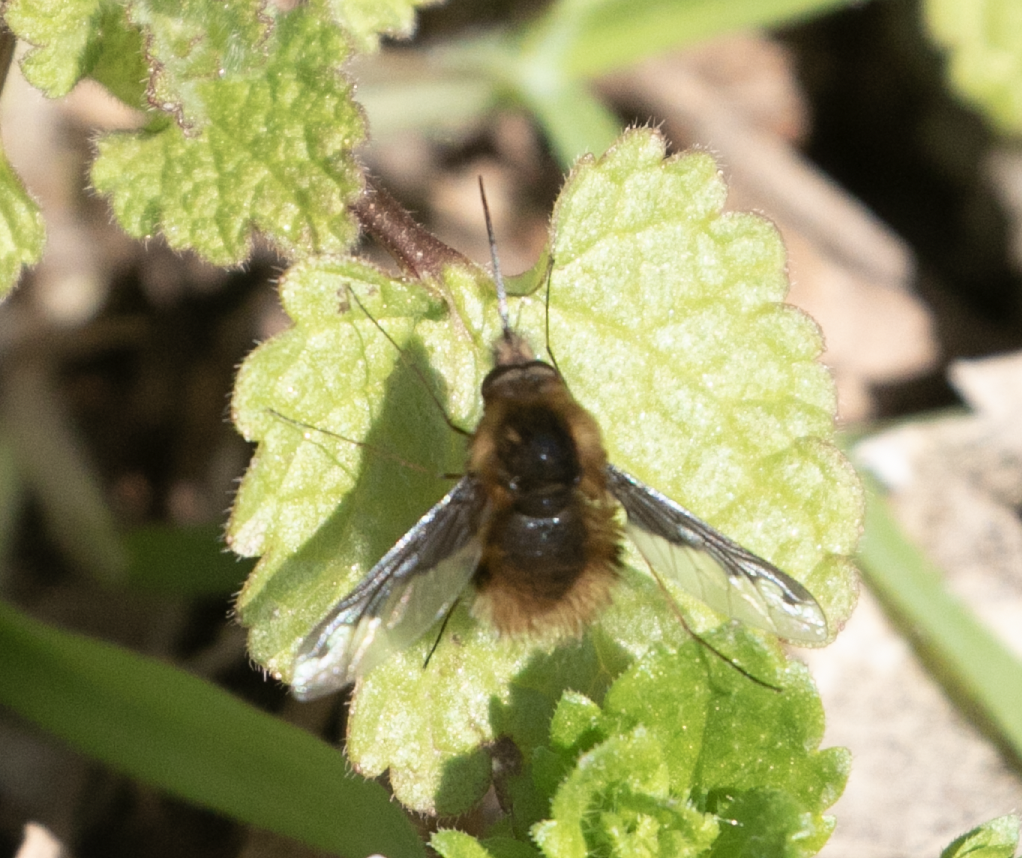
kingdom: Animalia
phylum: Arthropoda
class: Insecta
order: Diptera
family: Bombyliidae
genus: Bombylius
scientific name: Bombylius major
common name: Bee fly
